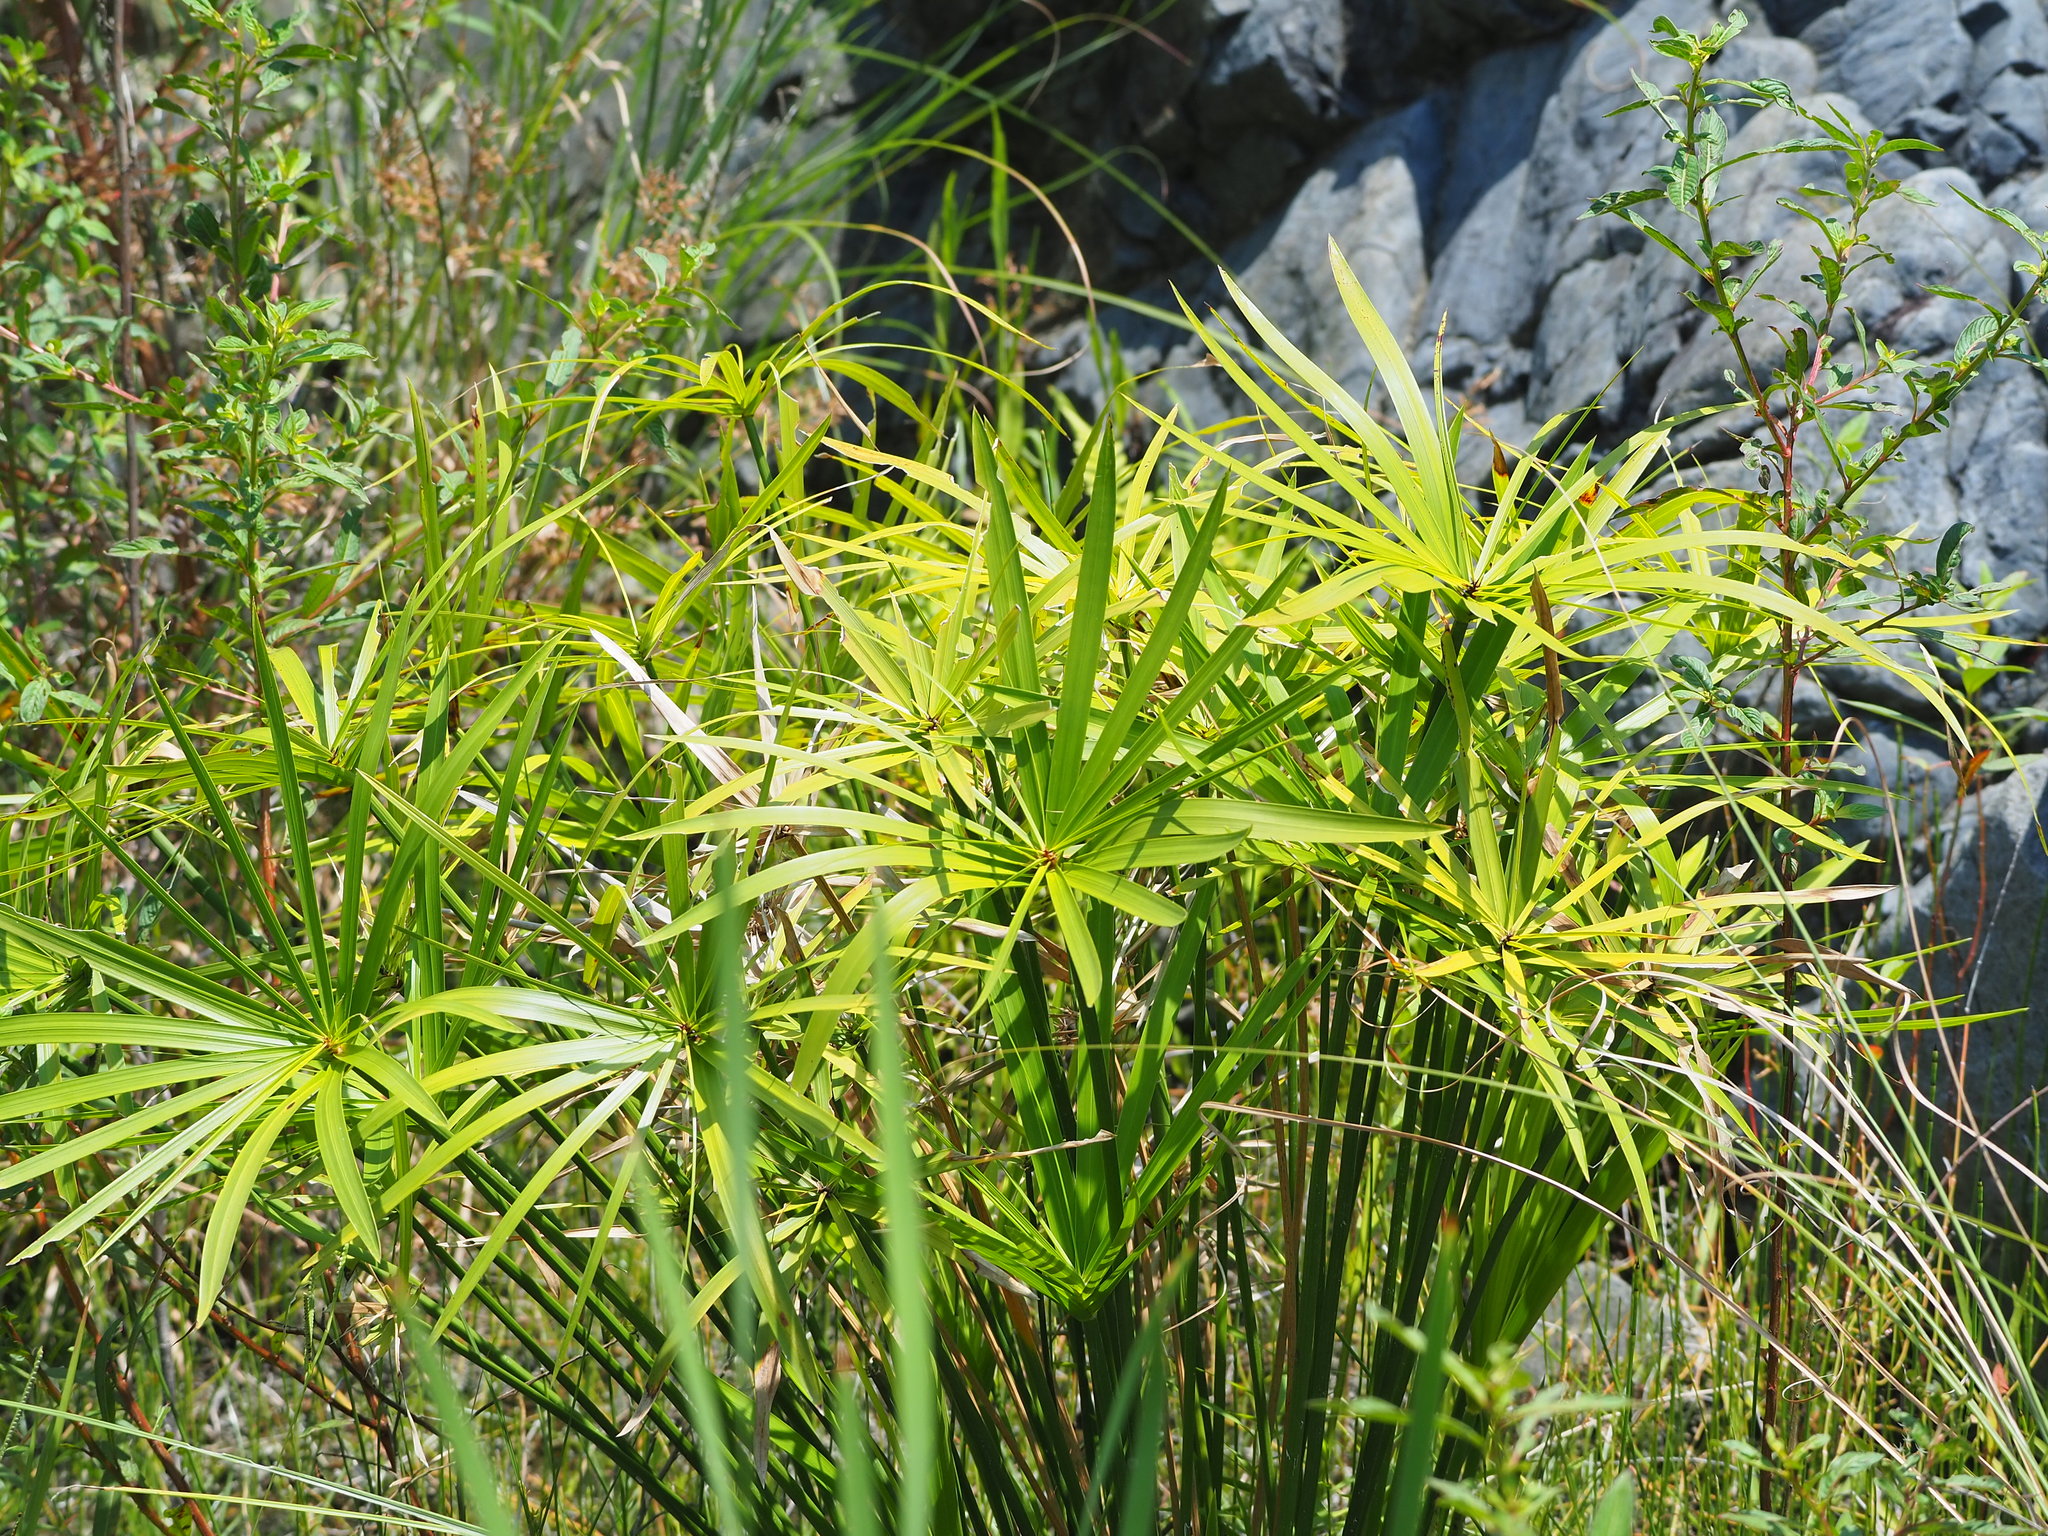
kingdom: Plantae
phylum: Tracheophyta
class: Liliopsida
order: Poales
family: Cyperaceae
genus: Cyperus
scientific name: Cyperus alternifolius
